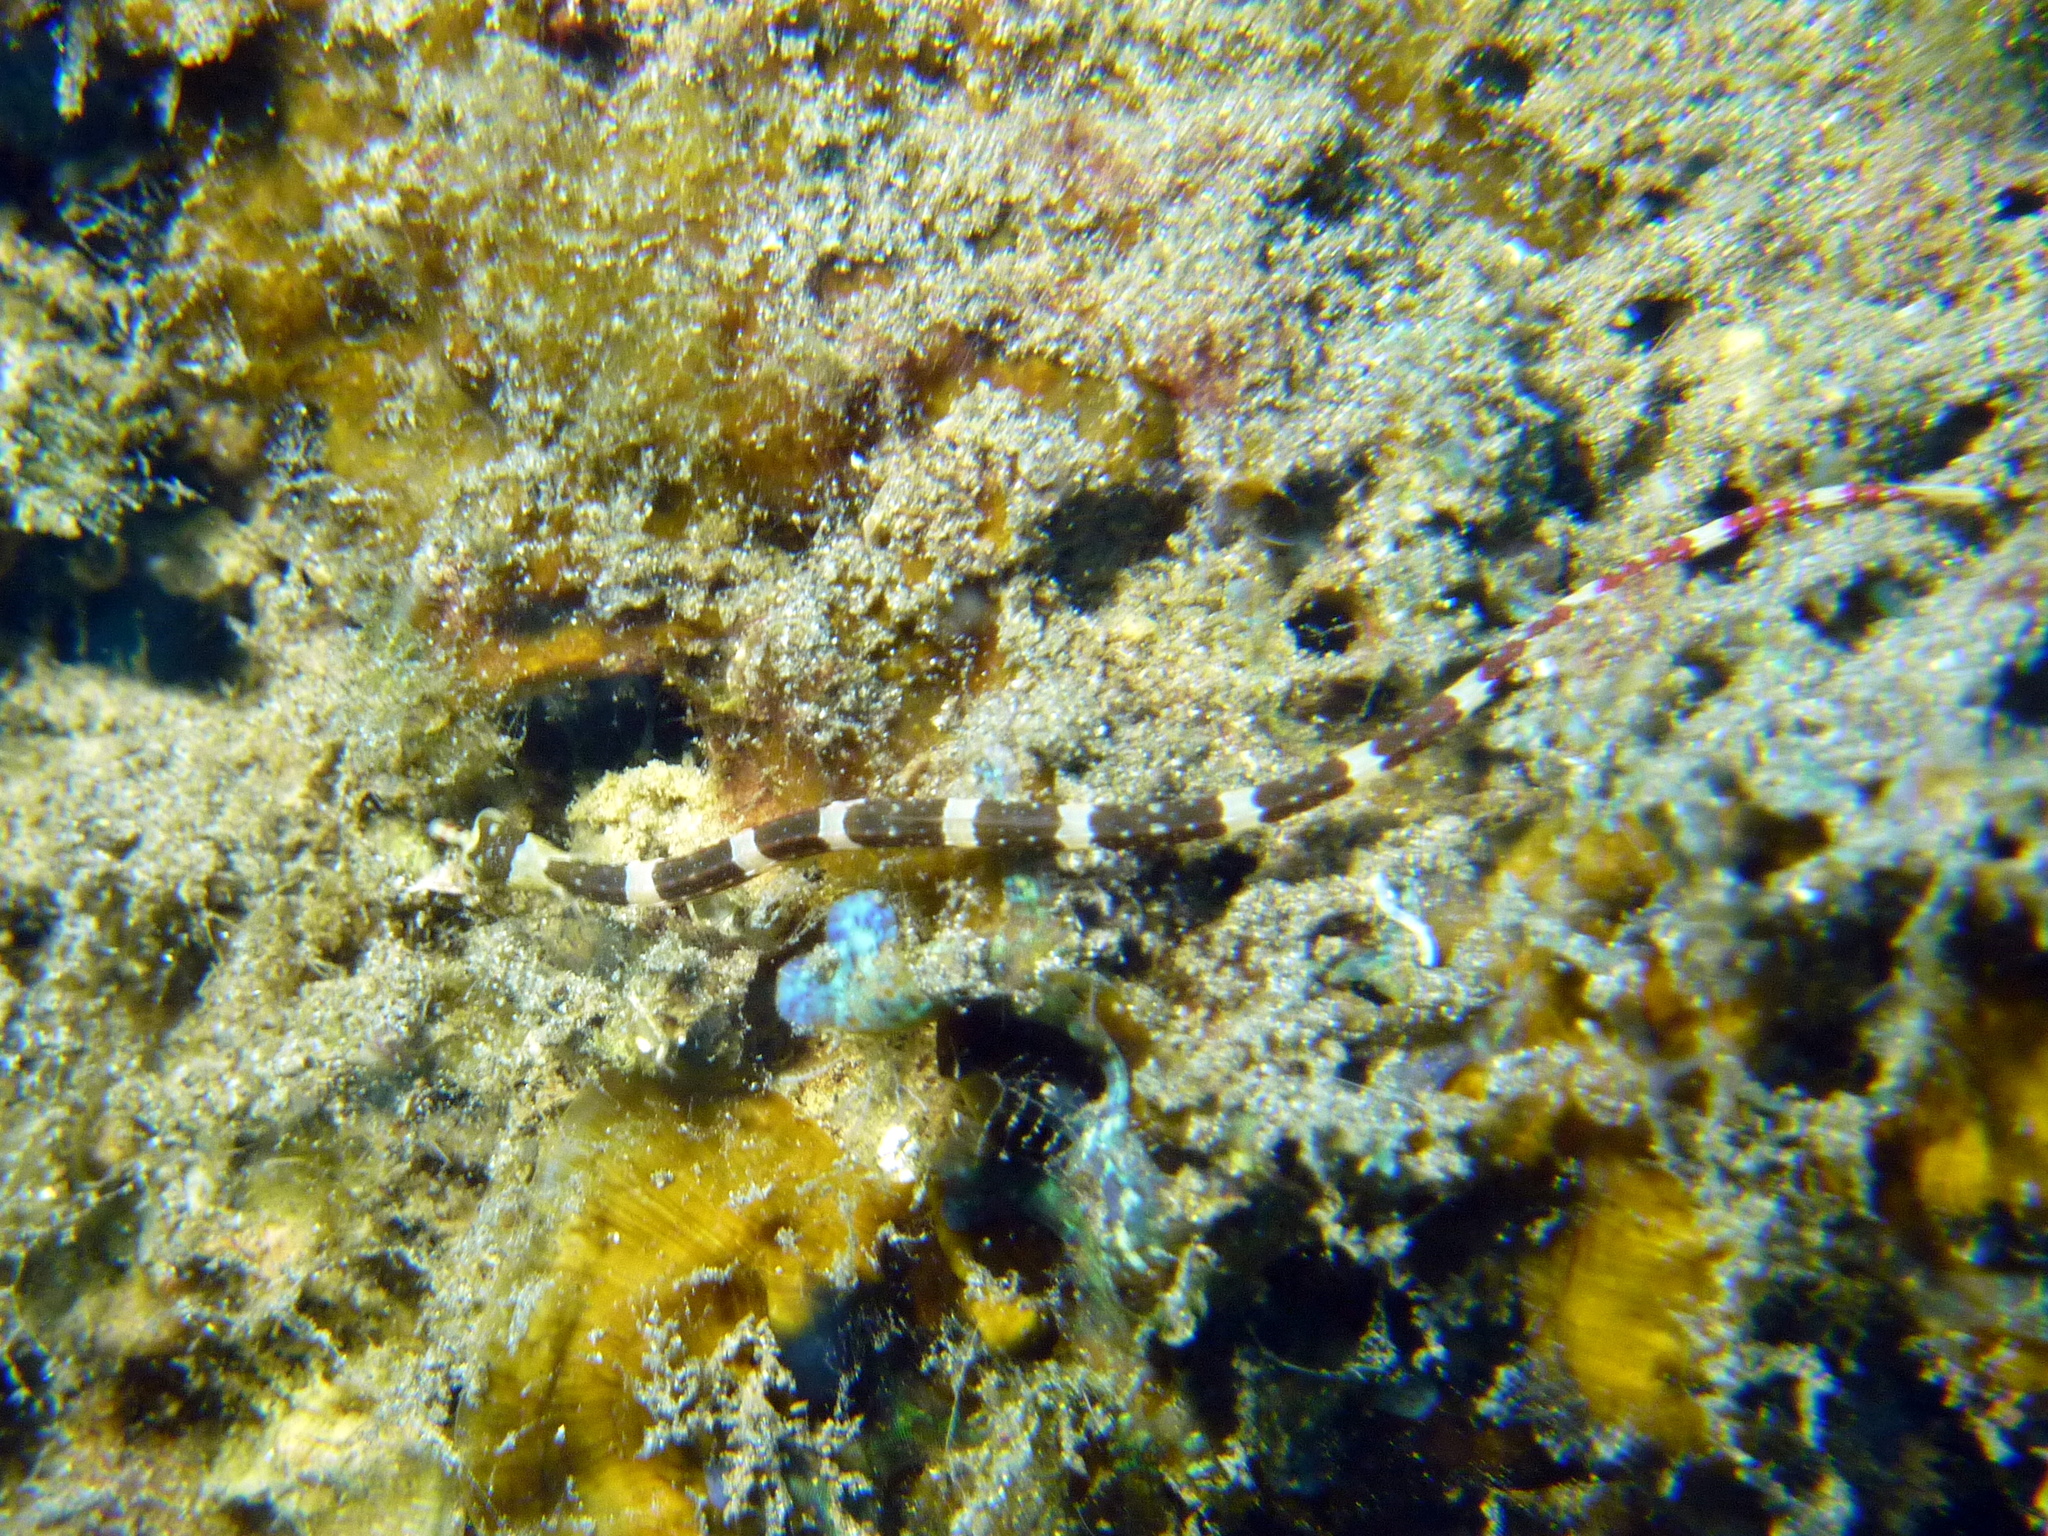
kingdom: Animalia
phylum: Chordata
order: Syngnathiformes
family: Syngnathidae
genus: Corythoichthys
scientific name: Corythoichthys amplexus
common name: Brown-banded pipefish
